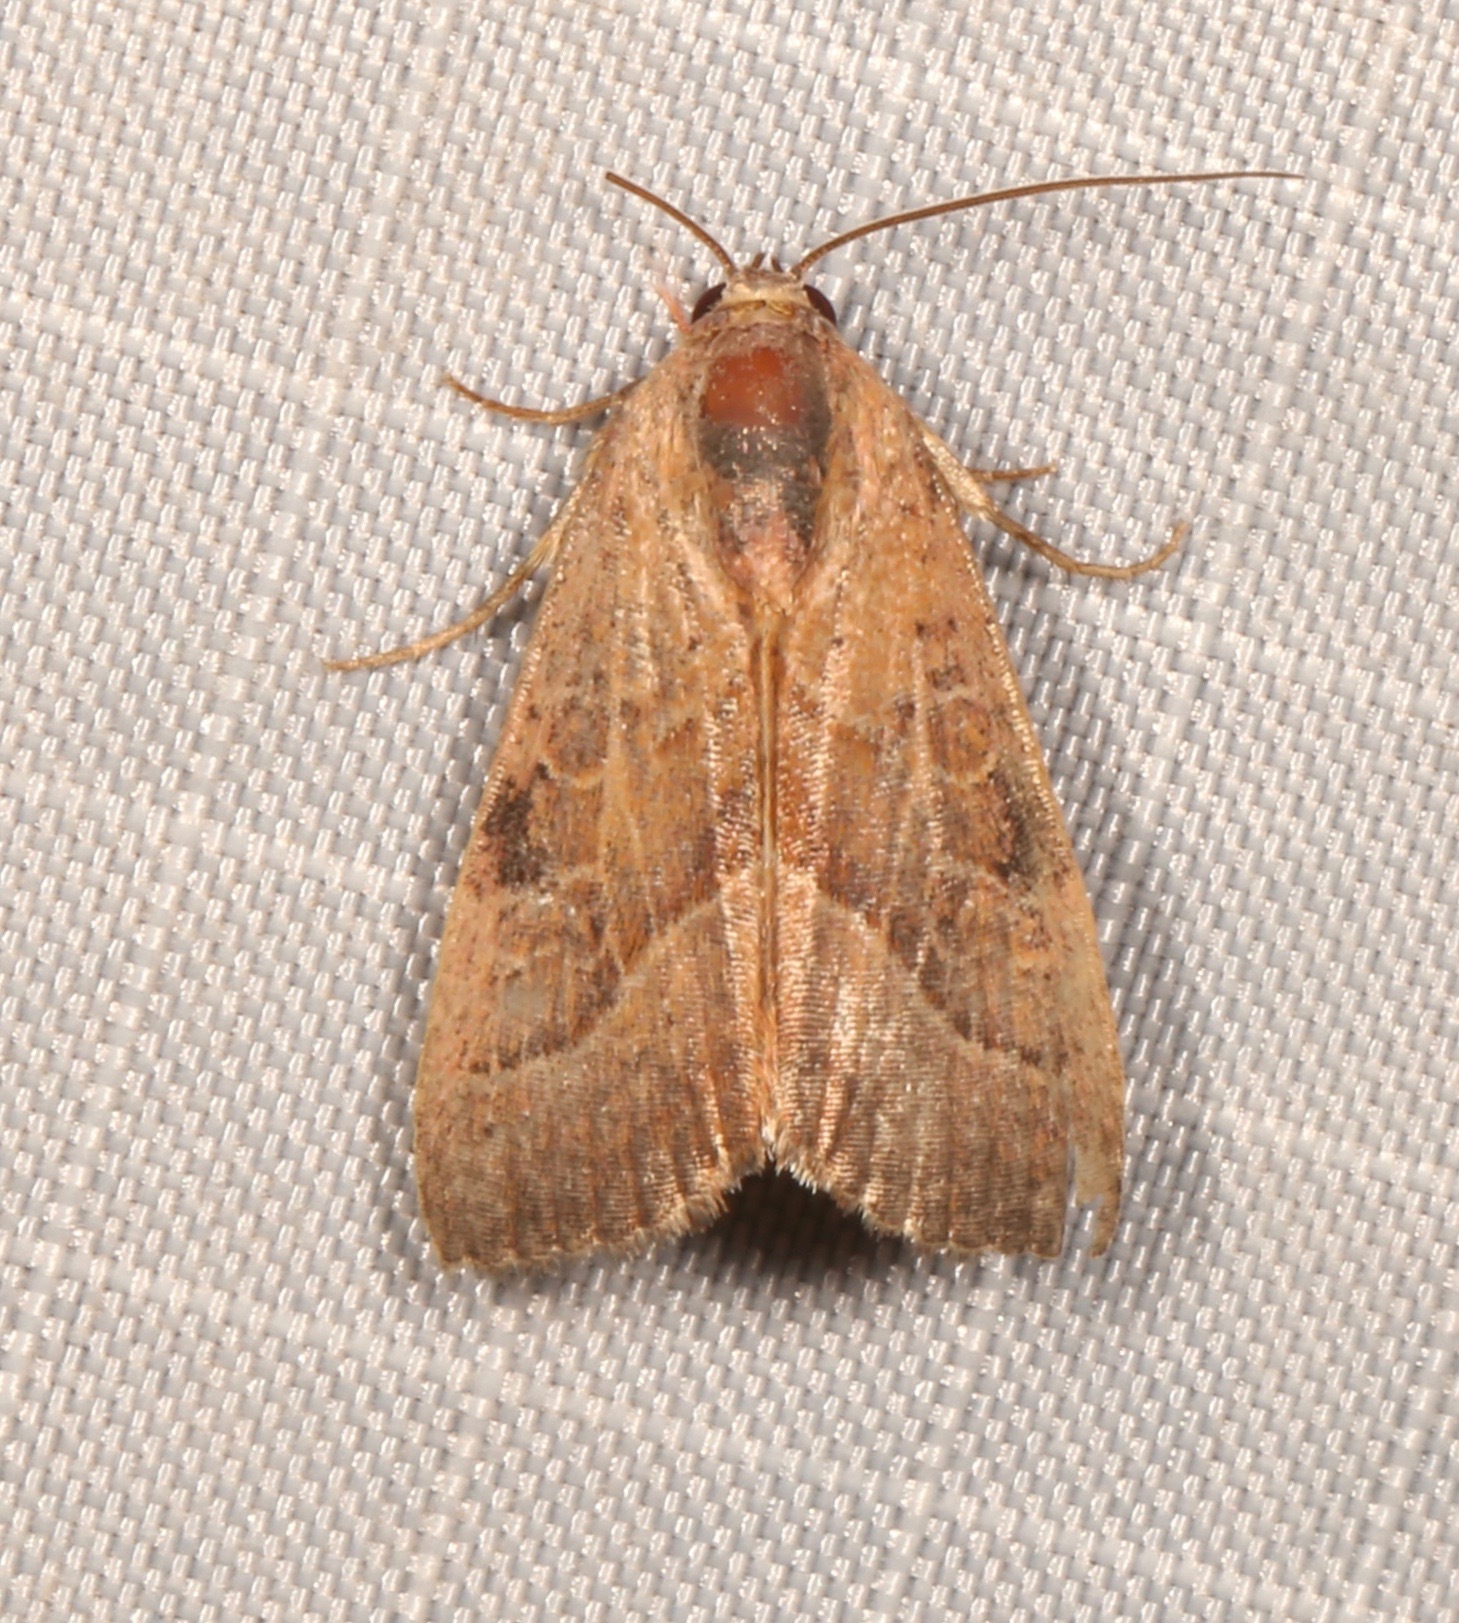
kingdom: Animalia
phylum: Arthropoda
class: Insecta
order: Lepidoptera
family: Noctuidae
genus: Galgula
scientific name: Galgula partita
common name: Wedgeling
